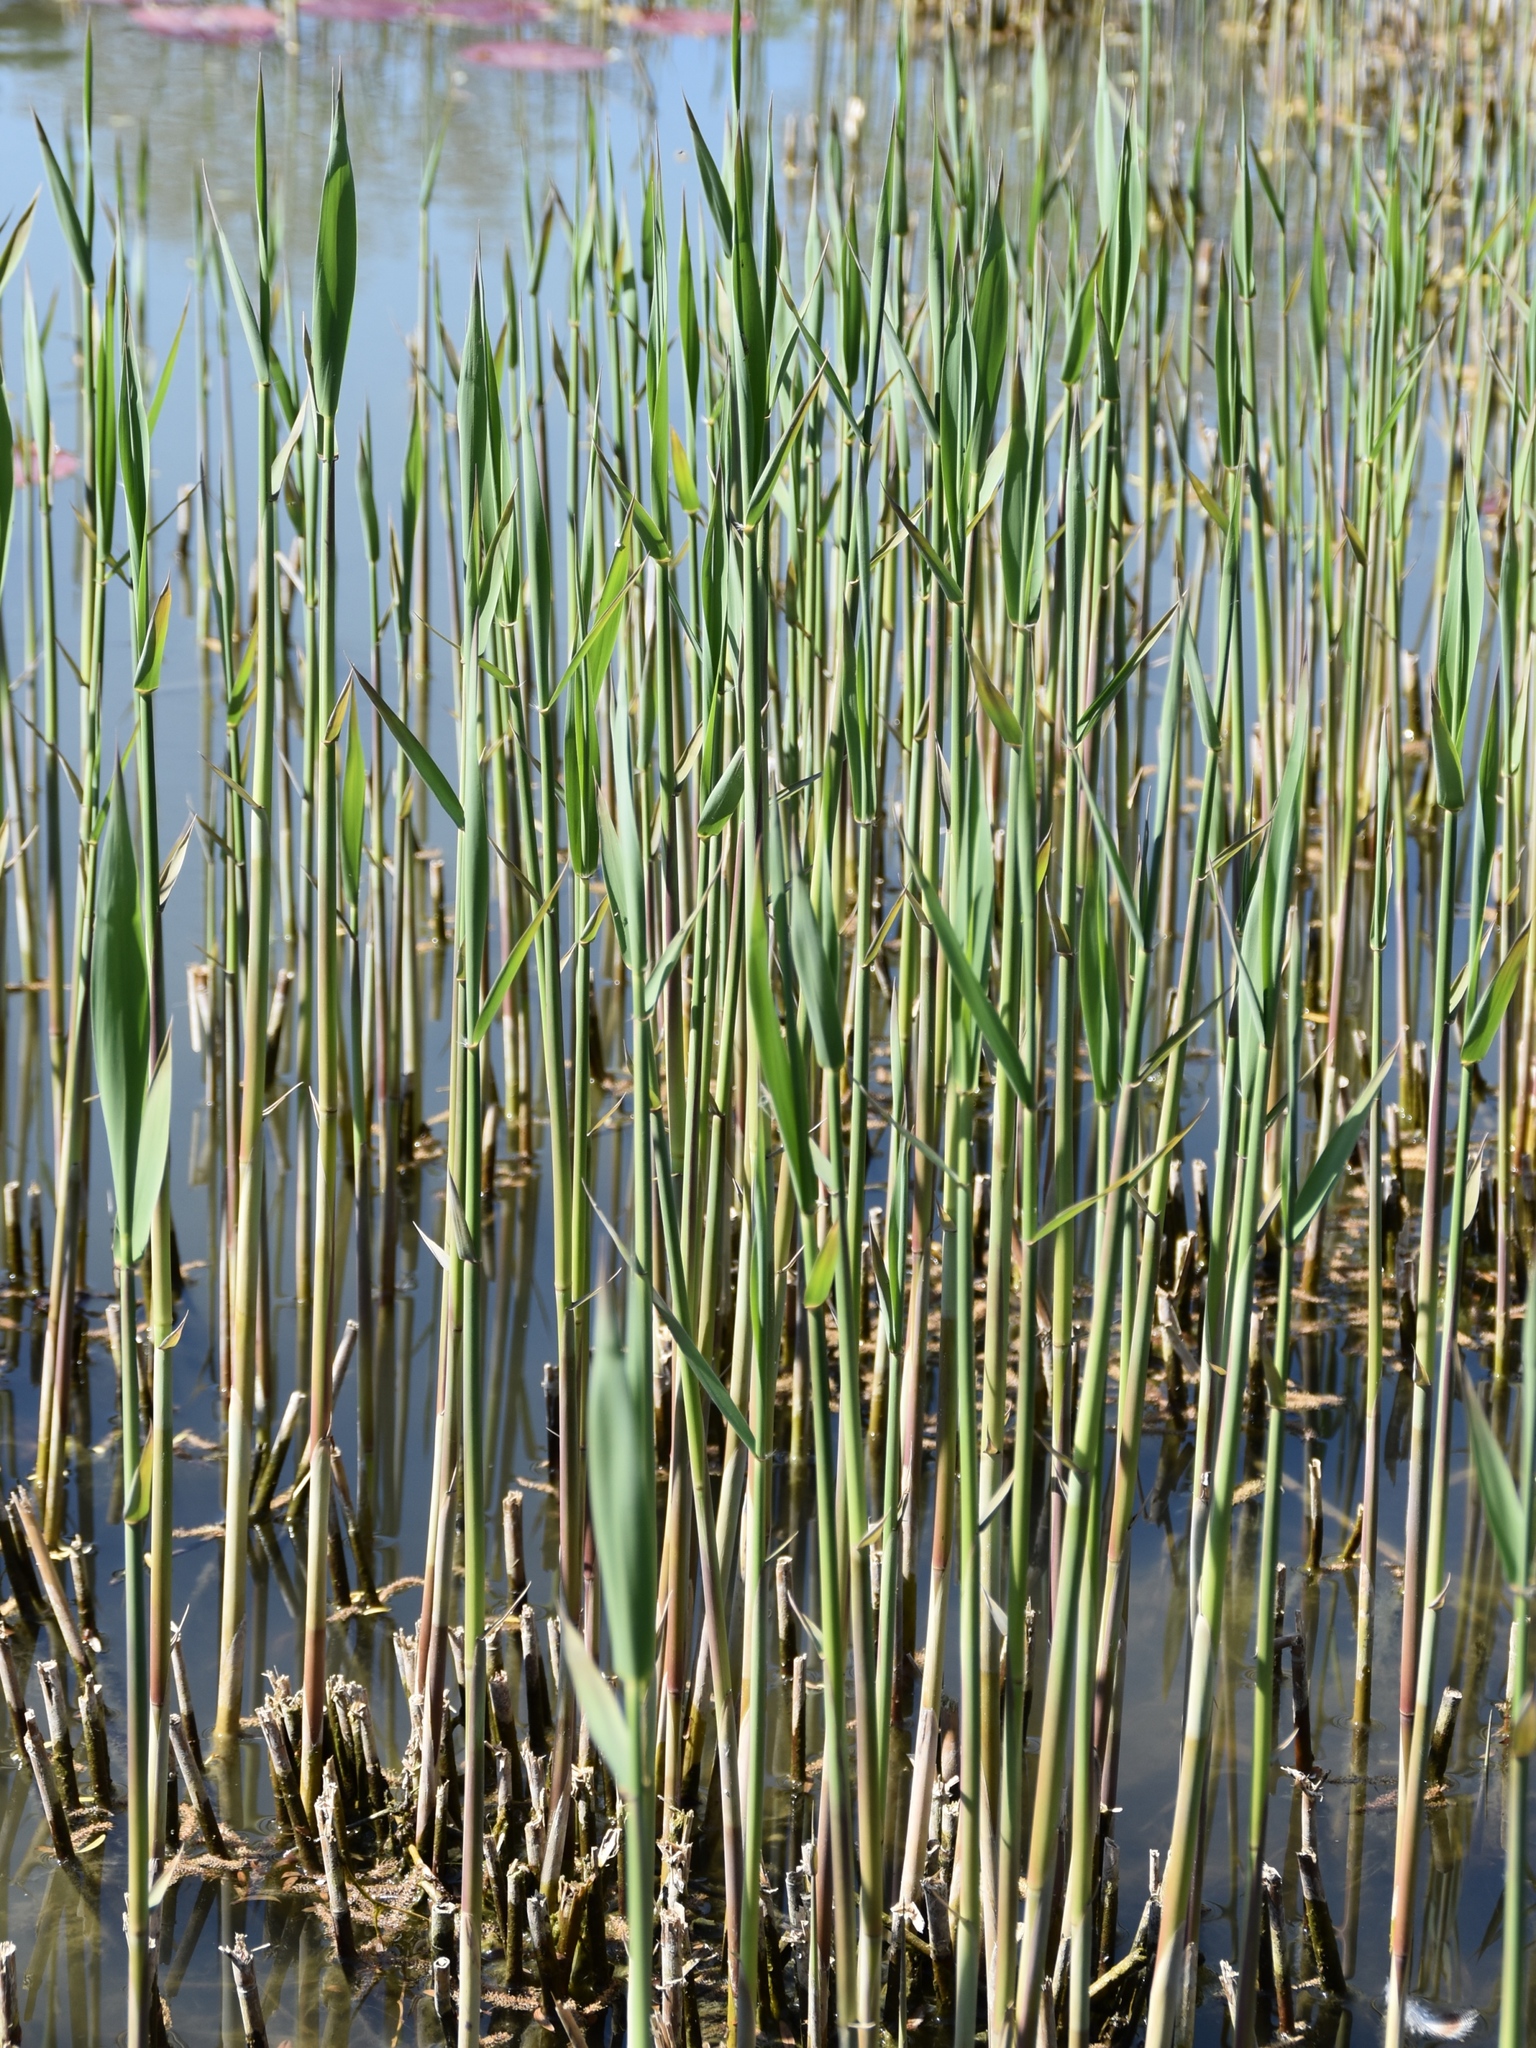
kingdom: Plantae
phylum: Tracheophyta
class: Liliopsida
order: Poales
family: Poaceae
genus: Phragmites
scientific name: Phragmites australis
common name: Common reed
